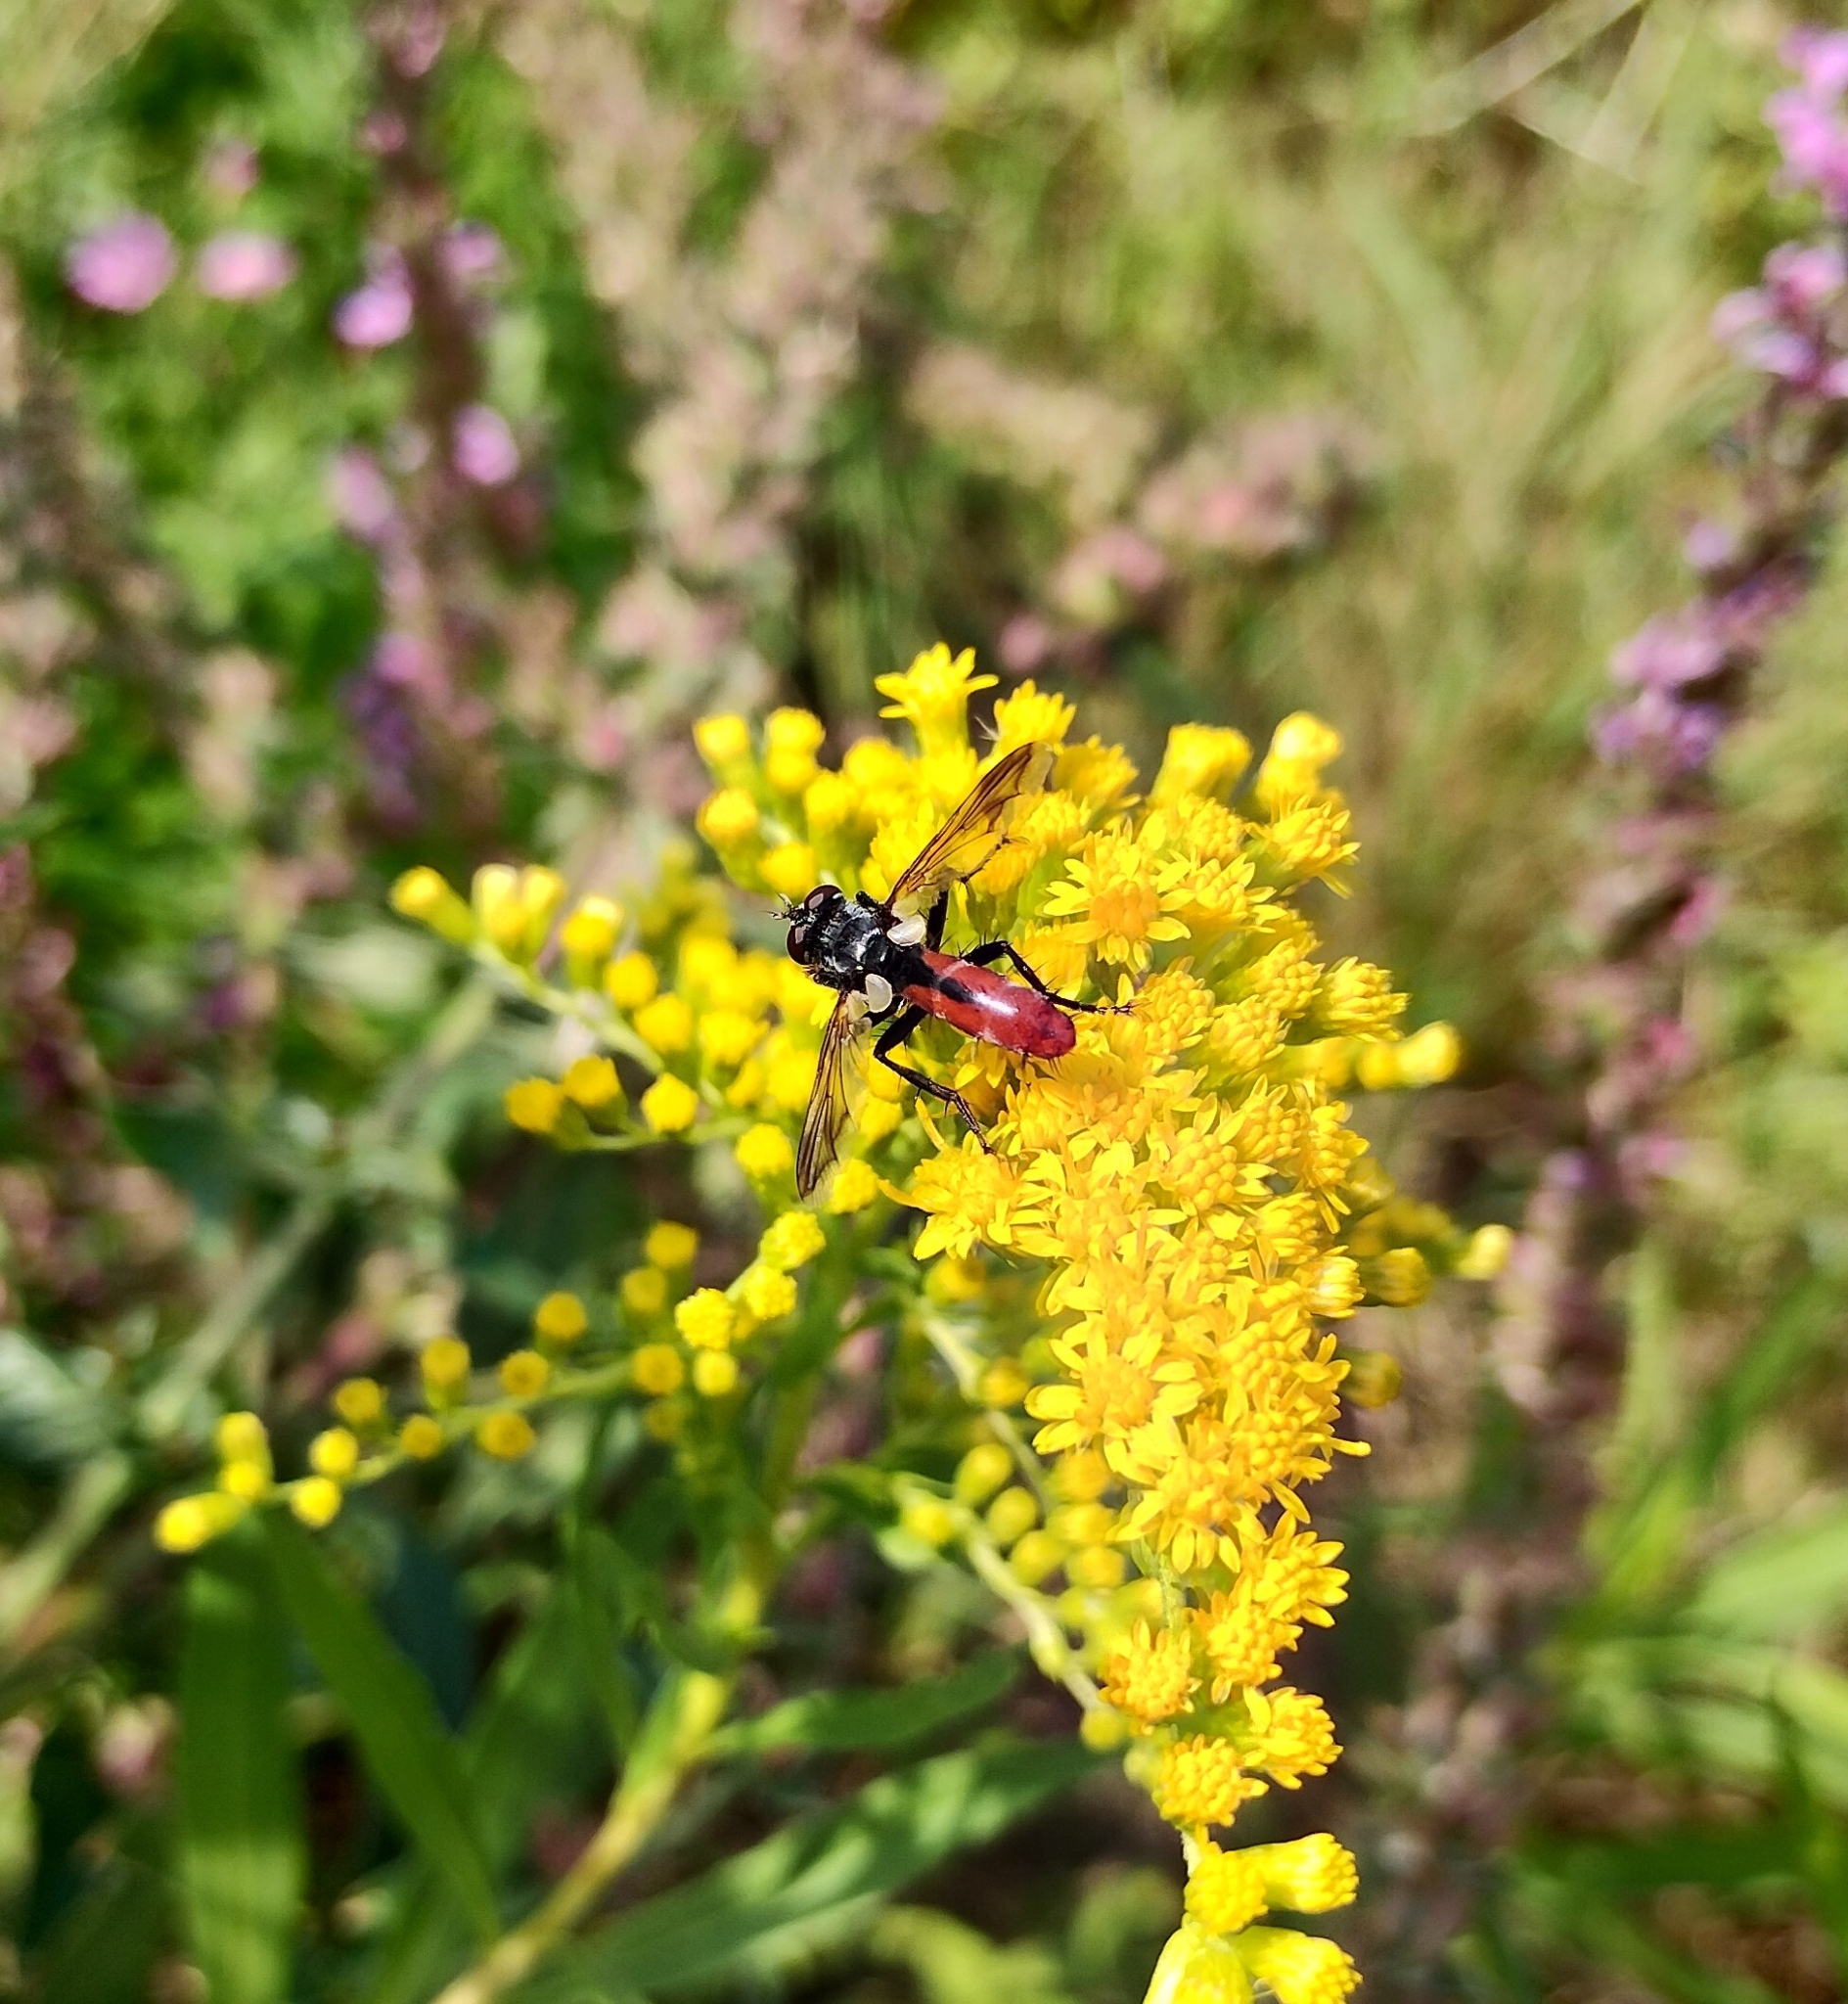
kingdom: Animalia
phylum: Arthropoda
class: Insecta
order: Diptera
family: Tachinidae
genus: Cylindromyia
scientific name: Cylindromyia bicolor
